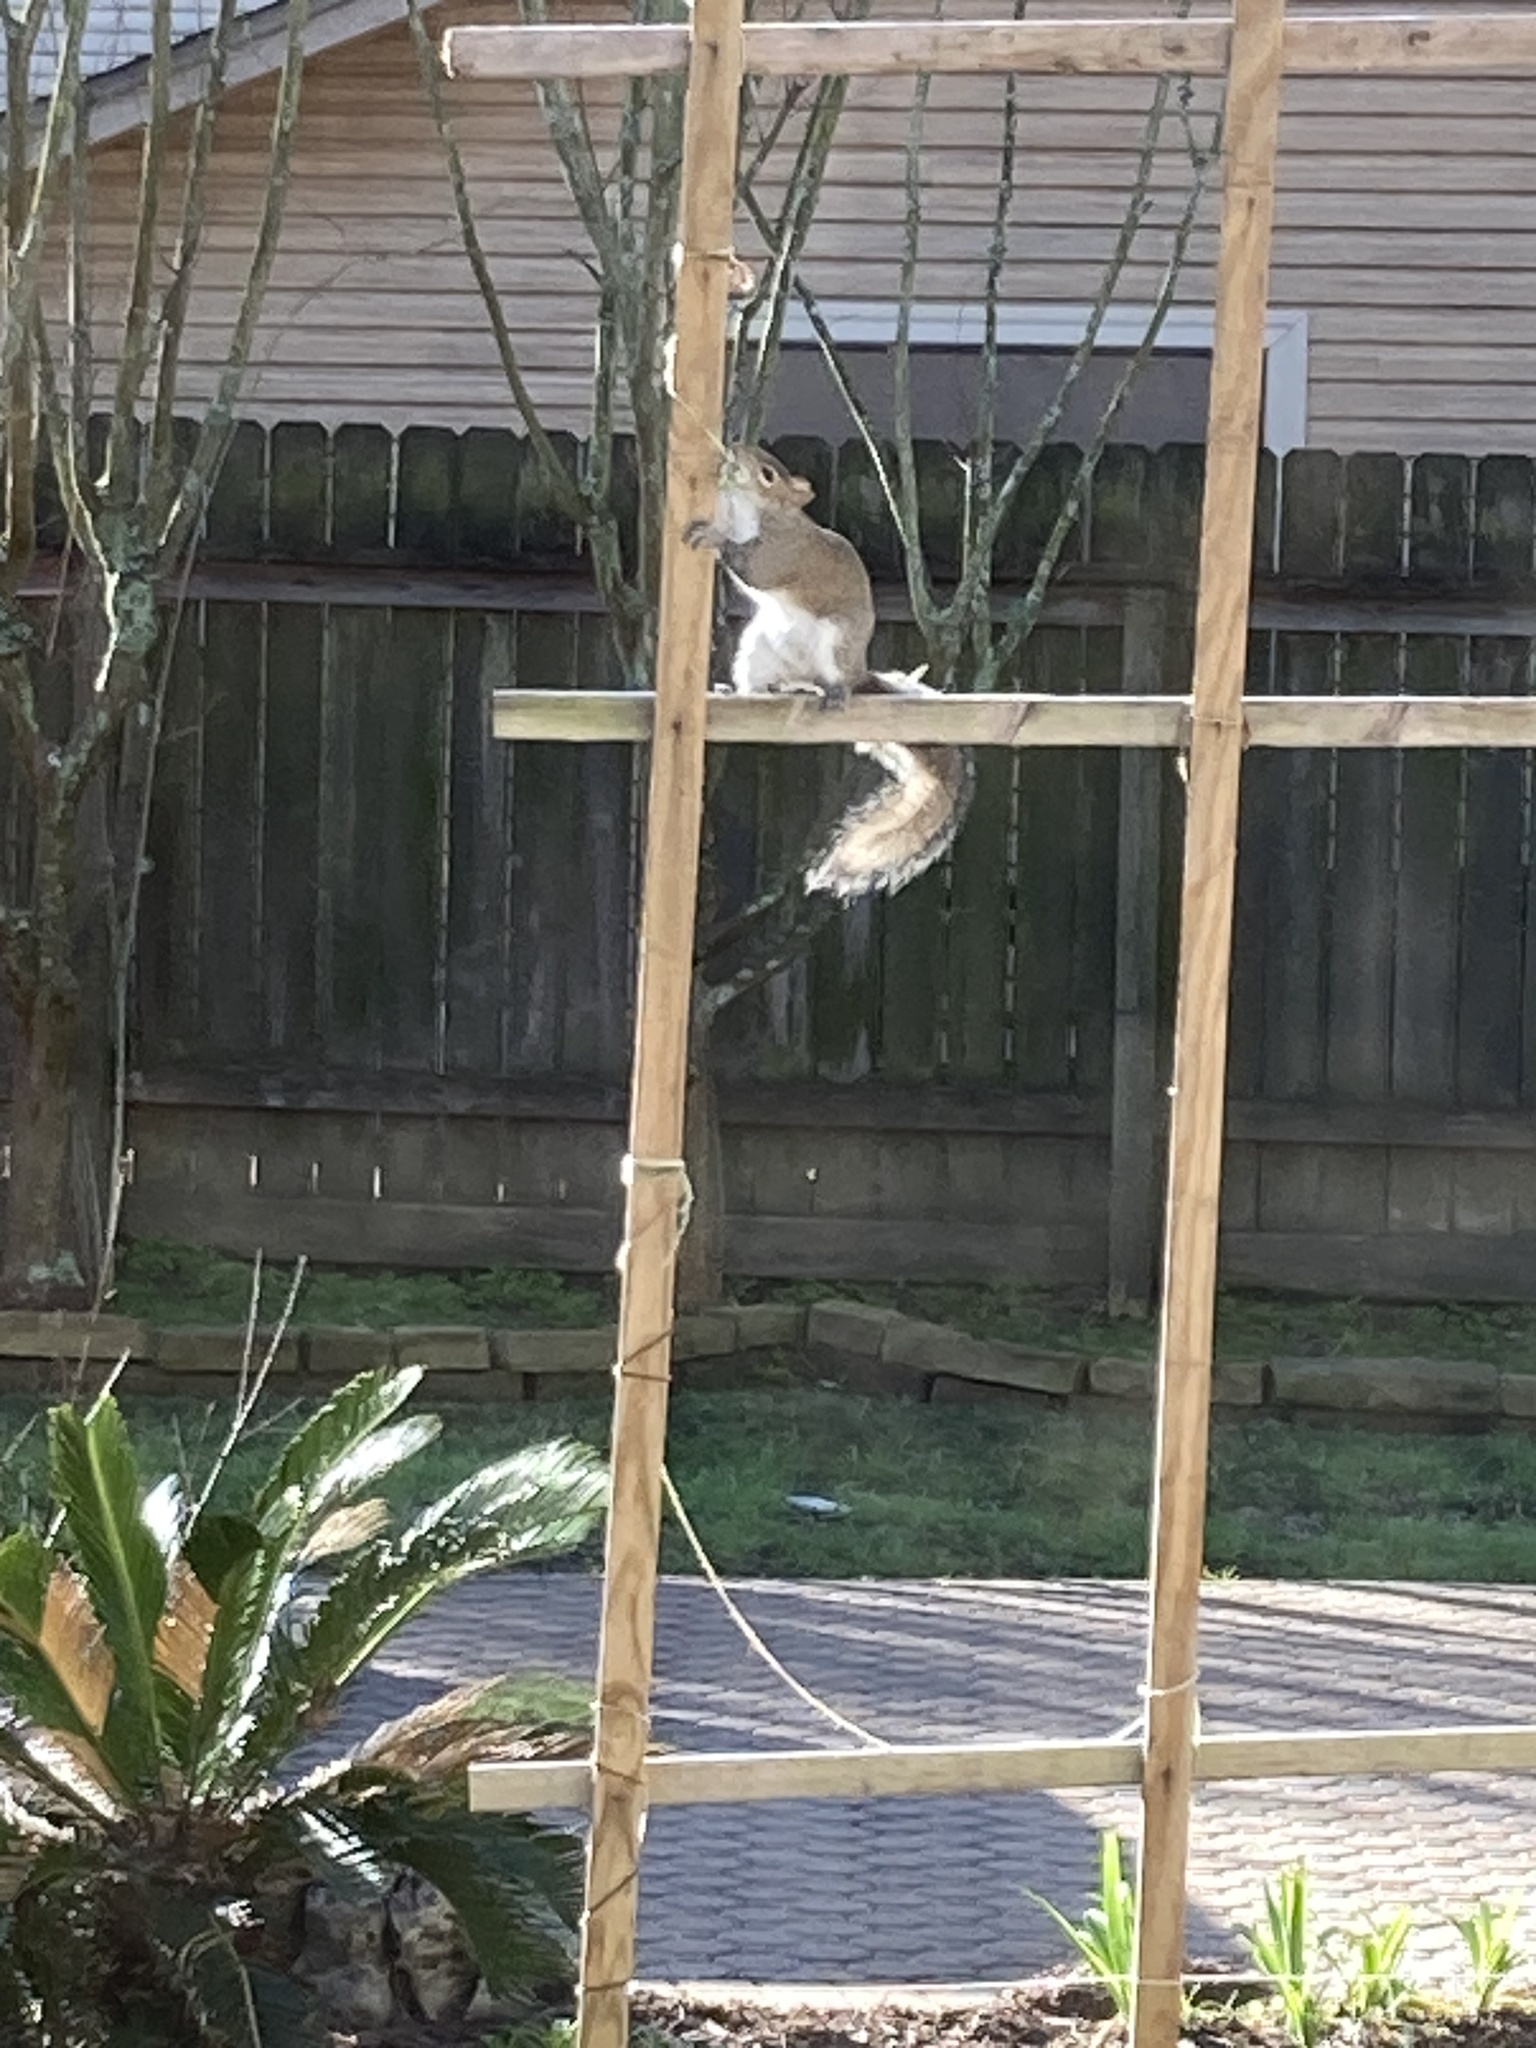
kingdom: Animalia
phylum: Chordata
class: Mammalia
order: Rodentia
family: Sciuridae
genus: Sciurus
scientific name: Sciurus carolinensis
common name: Eastern gray squirrel
